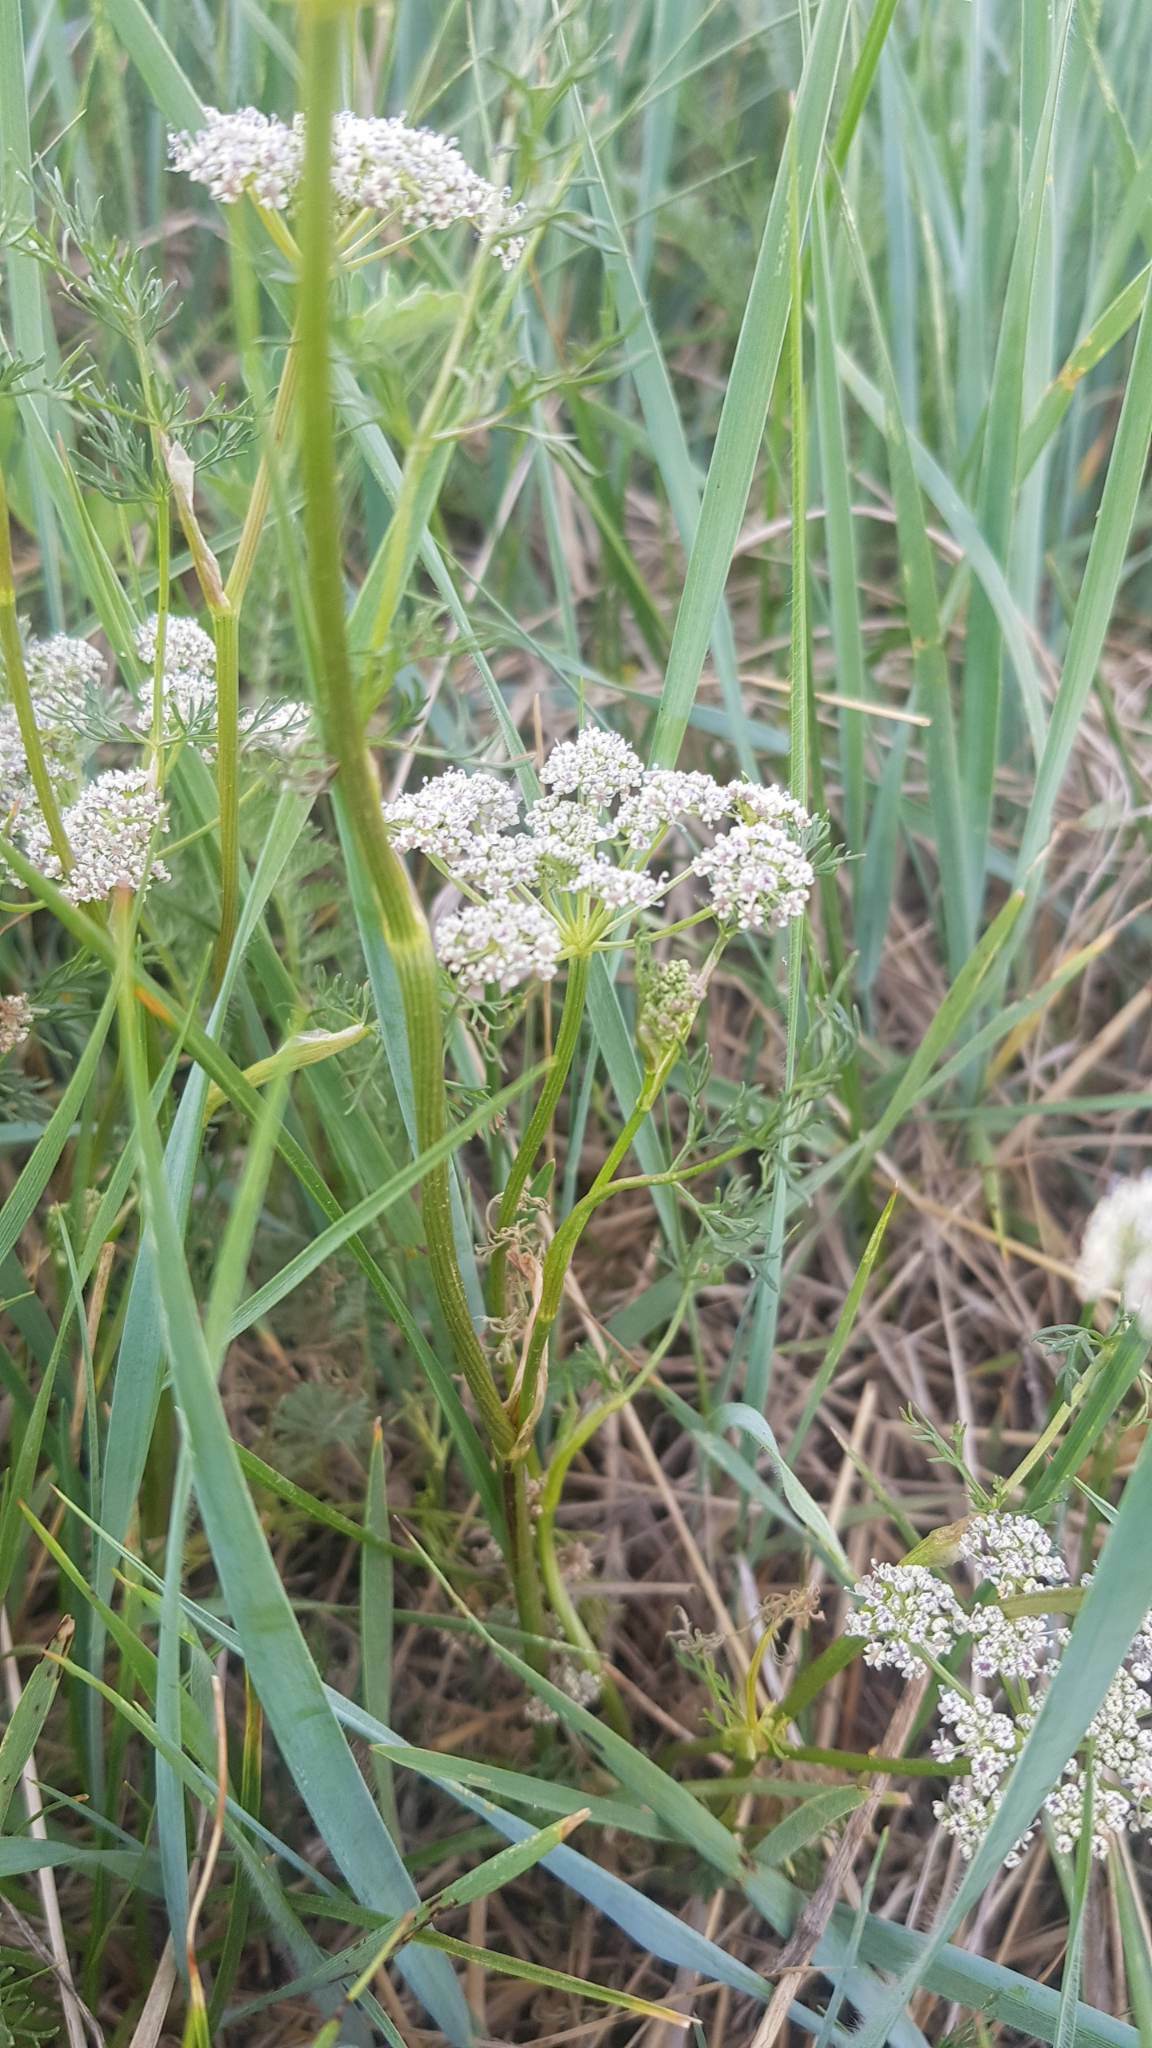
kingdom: Plantae
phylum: Tracheophyta
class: Magnoliopsida
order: Apiales
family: Apiaceae
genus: Peucedanum
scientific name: Peucedanum vaginatum
